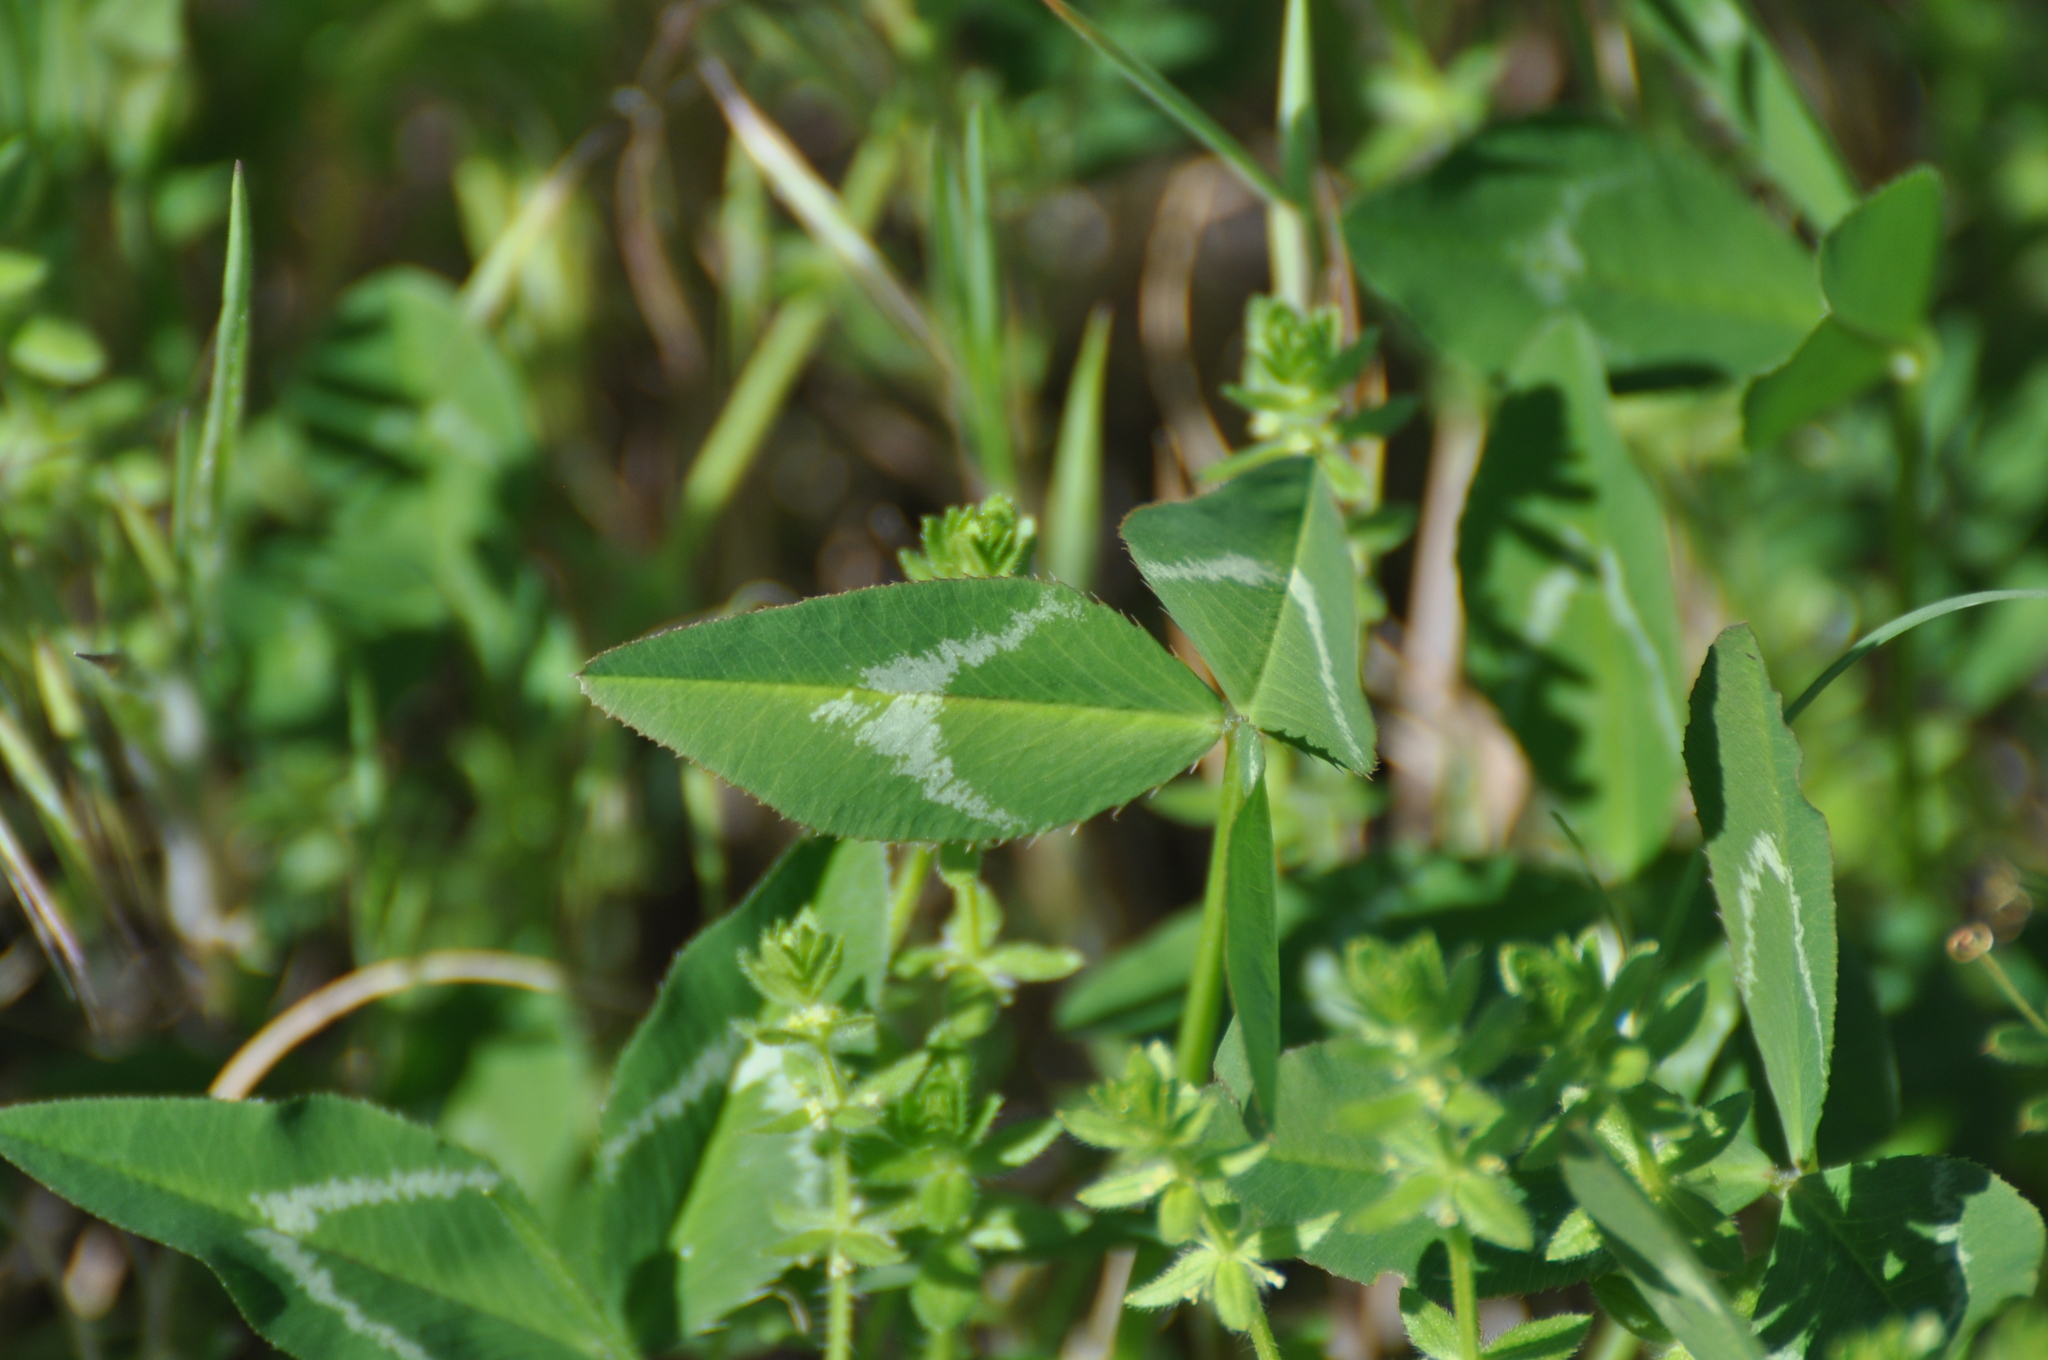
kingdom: Plantae
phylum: Tracheophyta
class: Magnoliopsida
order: Fabales
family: Fabaceae
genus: Trifolium
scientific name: Trifolium vesiculosum
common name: Arrowleaf clover
